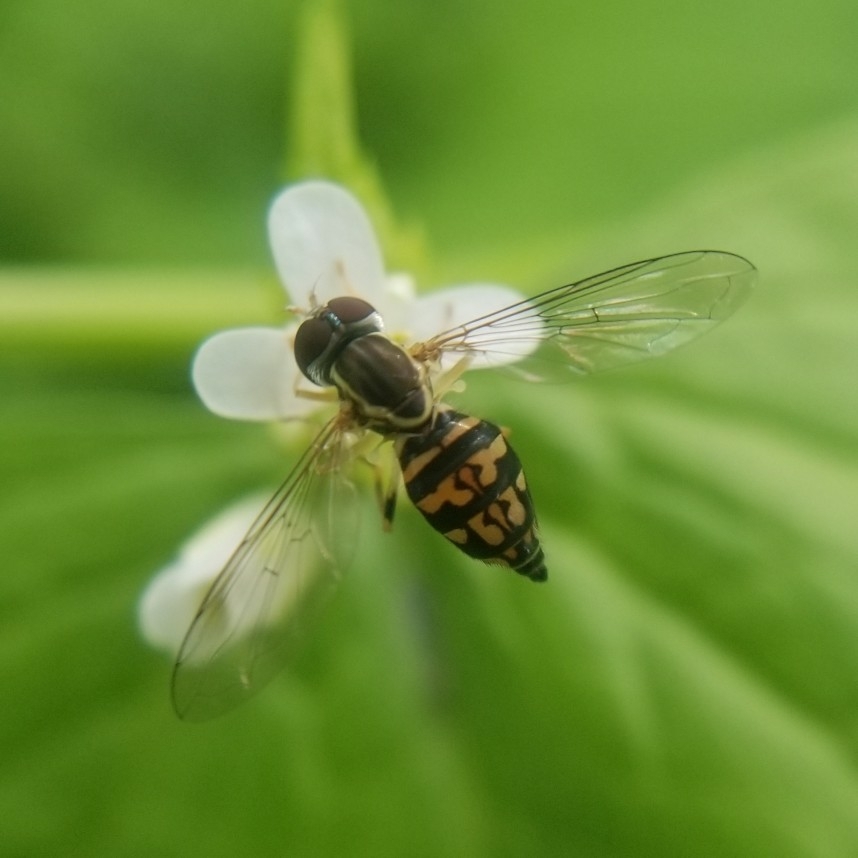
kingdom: Animalia
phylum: Arthropoda
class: Insecta
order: Diptera
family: Syrphidae
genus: Toxomerus
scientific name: Toxomerus geminatus
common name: Eastern calligrapher
